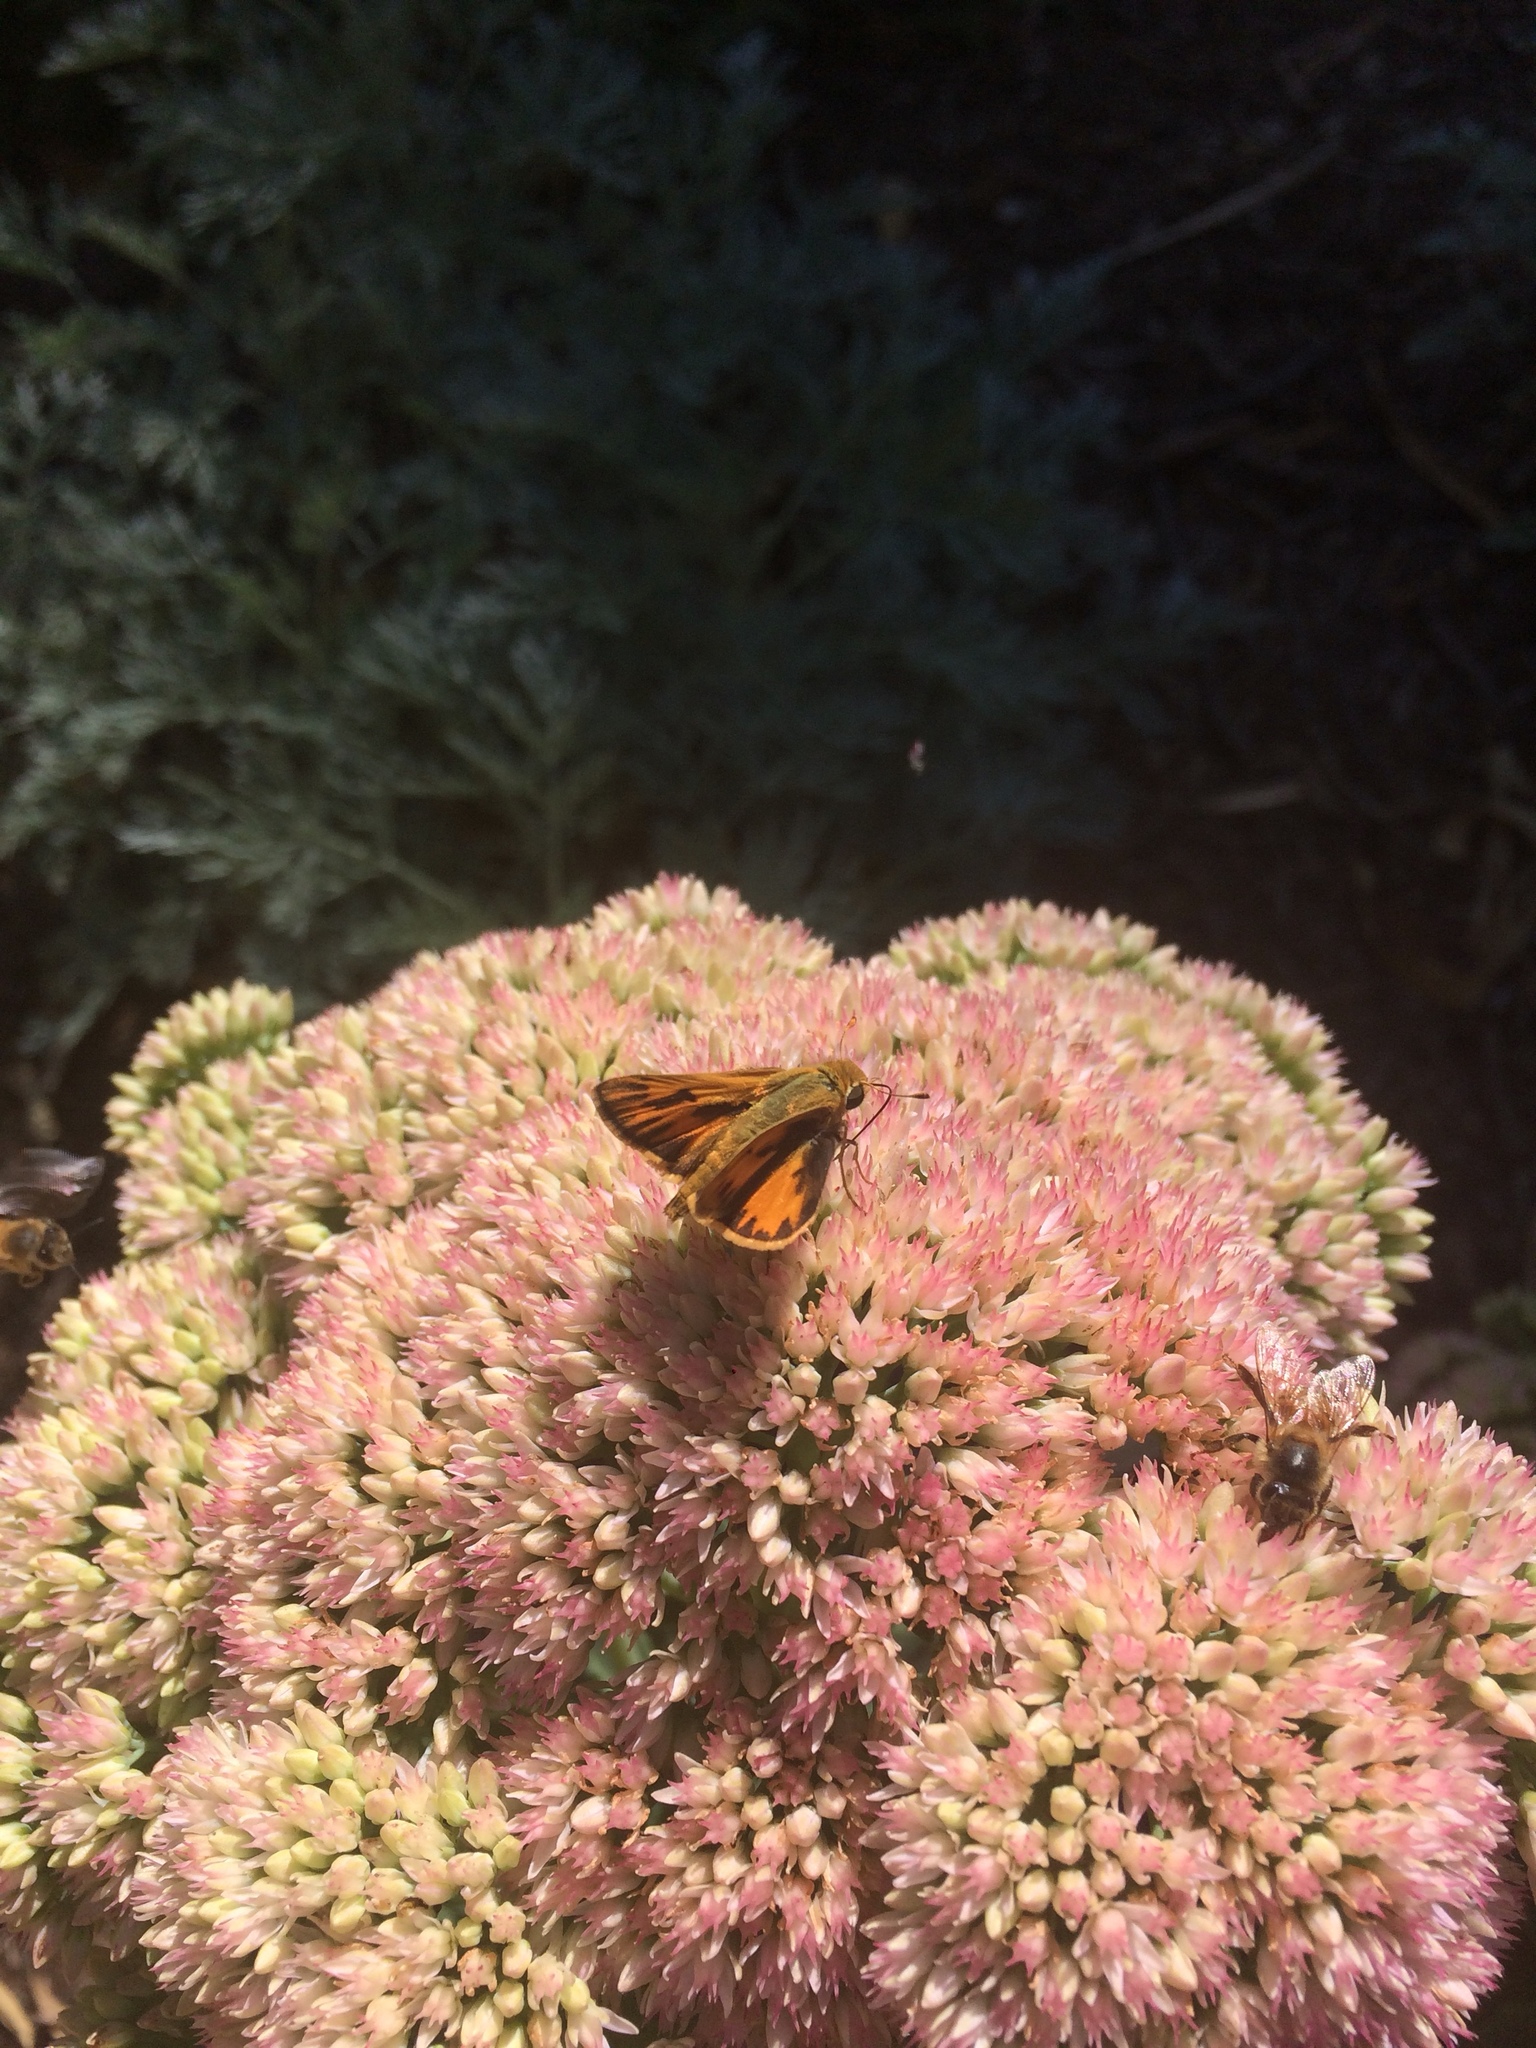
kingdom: Animalia
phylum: Arthropoda
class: Insecta
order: Lepidoptera
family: Hesperiidae
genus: Hylephila
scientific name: Hylephila phyleus
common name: Fiery skipper
